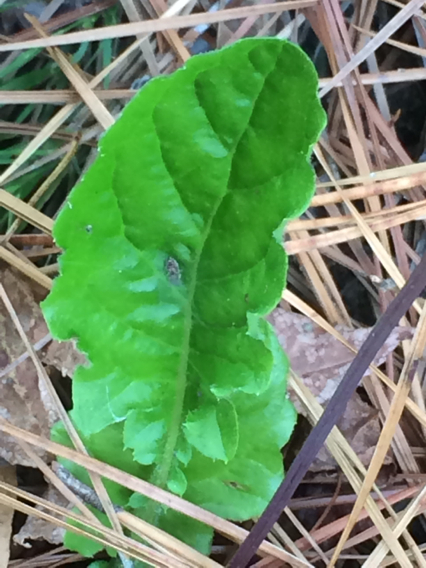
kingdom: Plantae
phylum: Tracheophyta
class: Magnoliopsida
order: Asterales
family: Asteraceae
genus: Youngia
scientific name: Youngia japonica
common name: Oriental false hawksbeard
